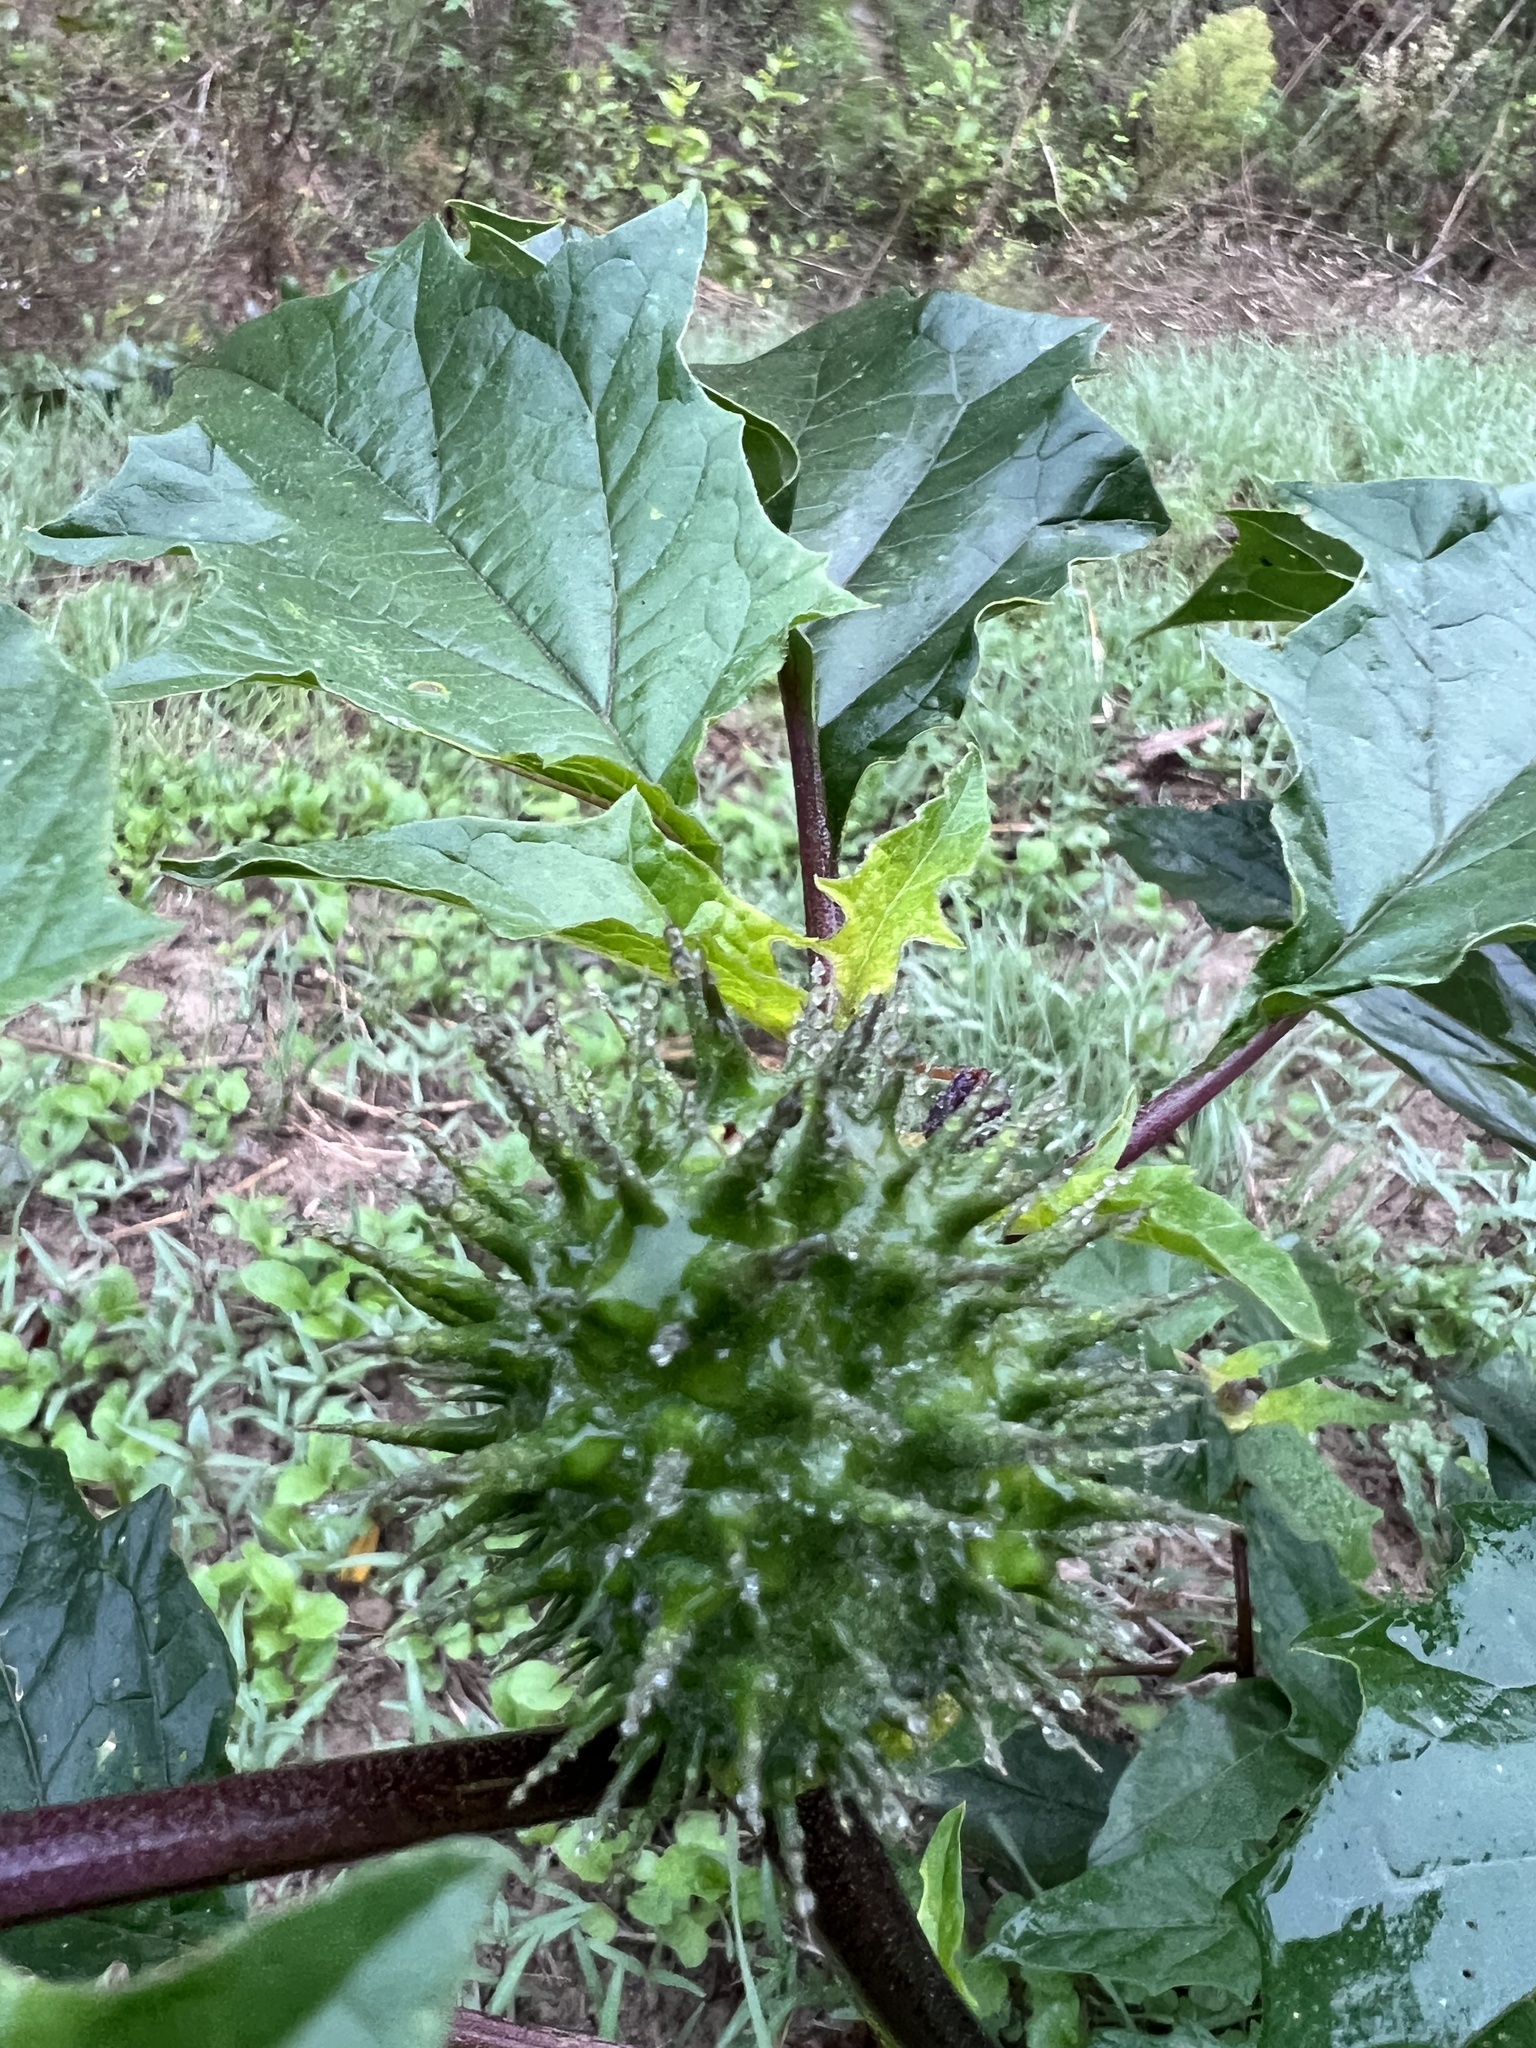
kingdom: Plantae
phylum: Tracheophyta
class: Magnoliopsida
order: Solanales
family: Solanaceae
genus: Datura
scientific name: Datura stramonium
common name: Thorn-apple
